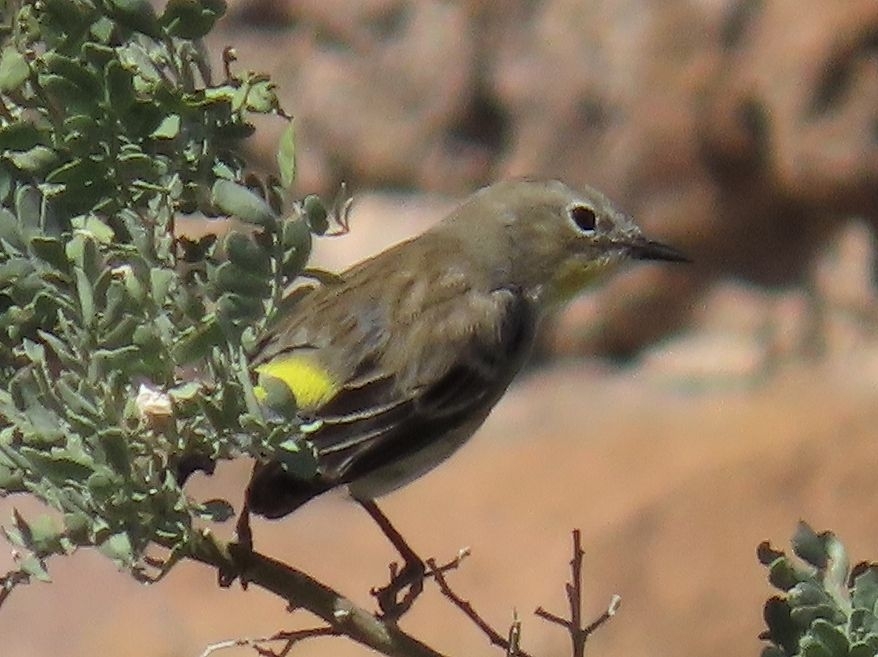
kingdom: Animalia
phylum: Chordata
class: Aves
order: Passeriformes
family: Parulidae
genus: Setophaga
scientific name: Setophaga coronata
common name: Myrtle warbler
